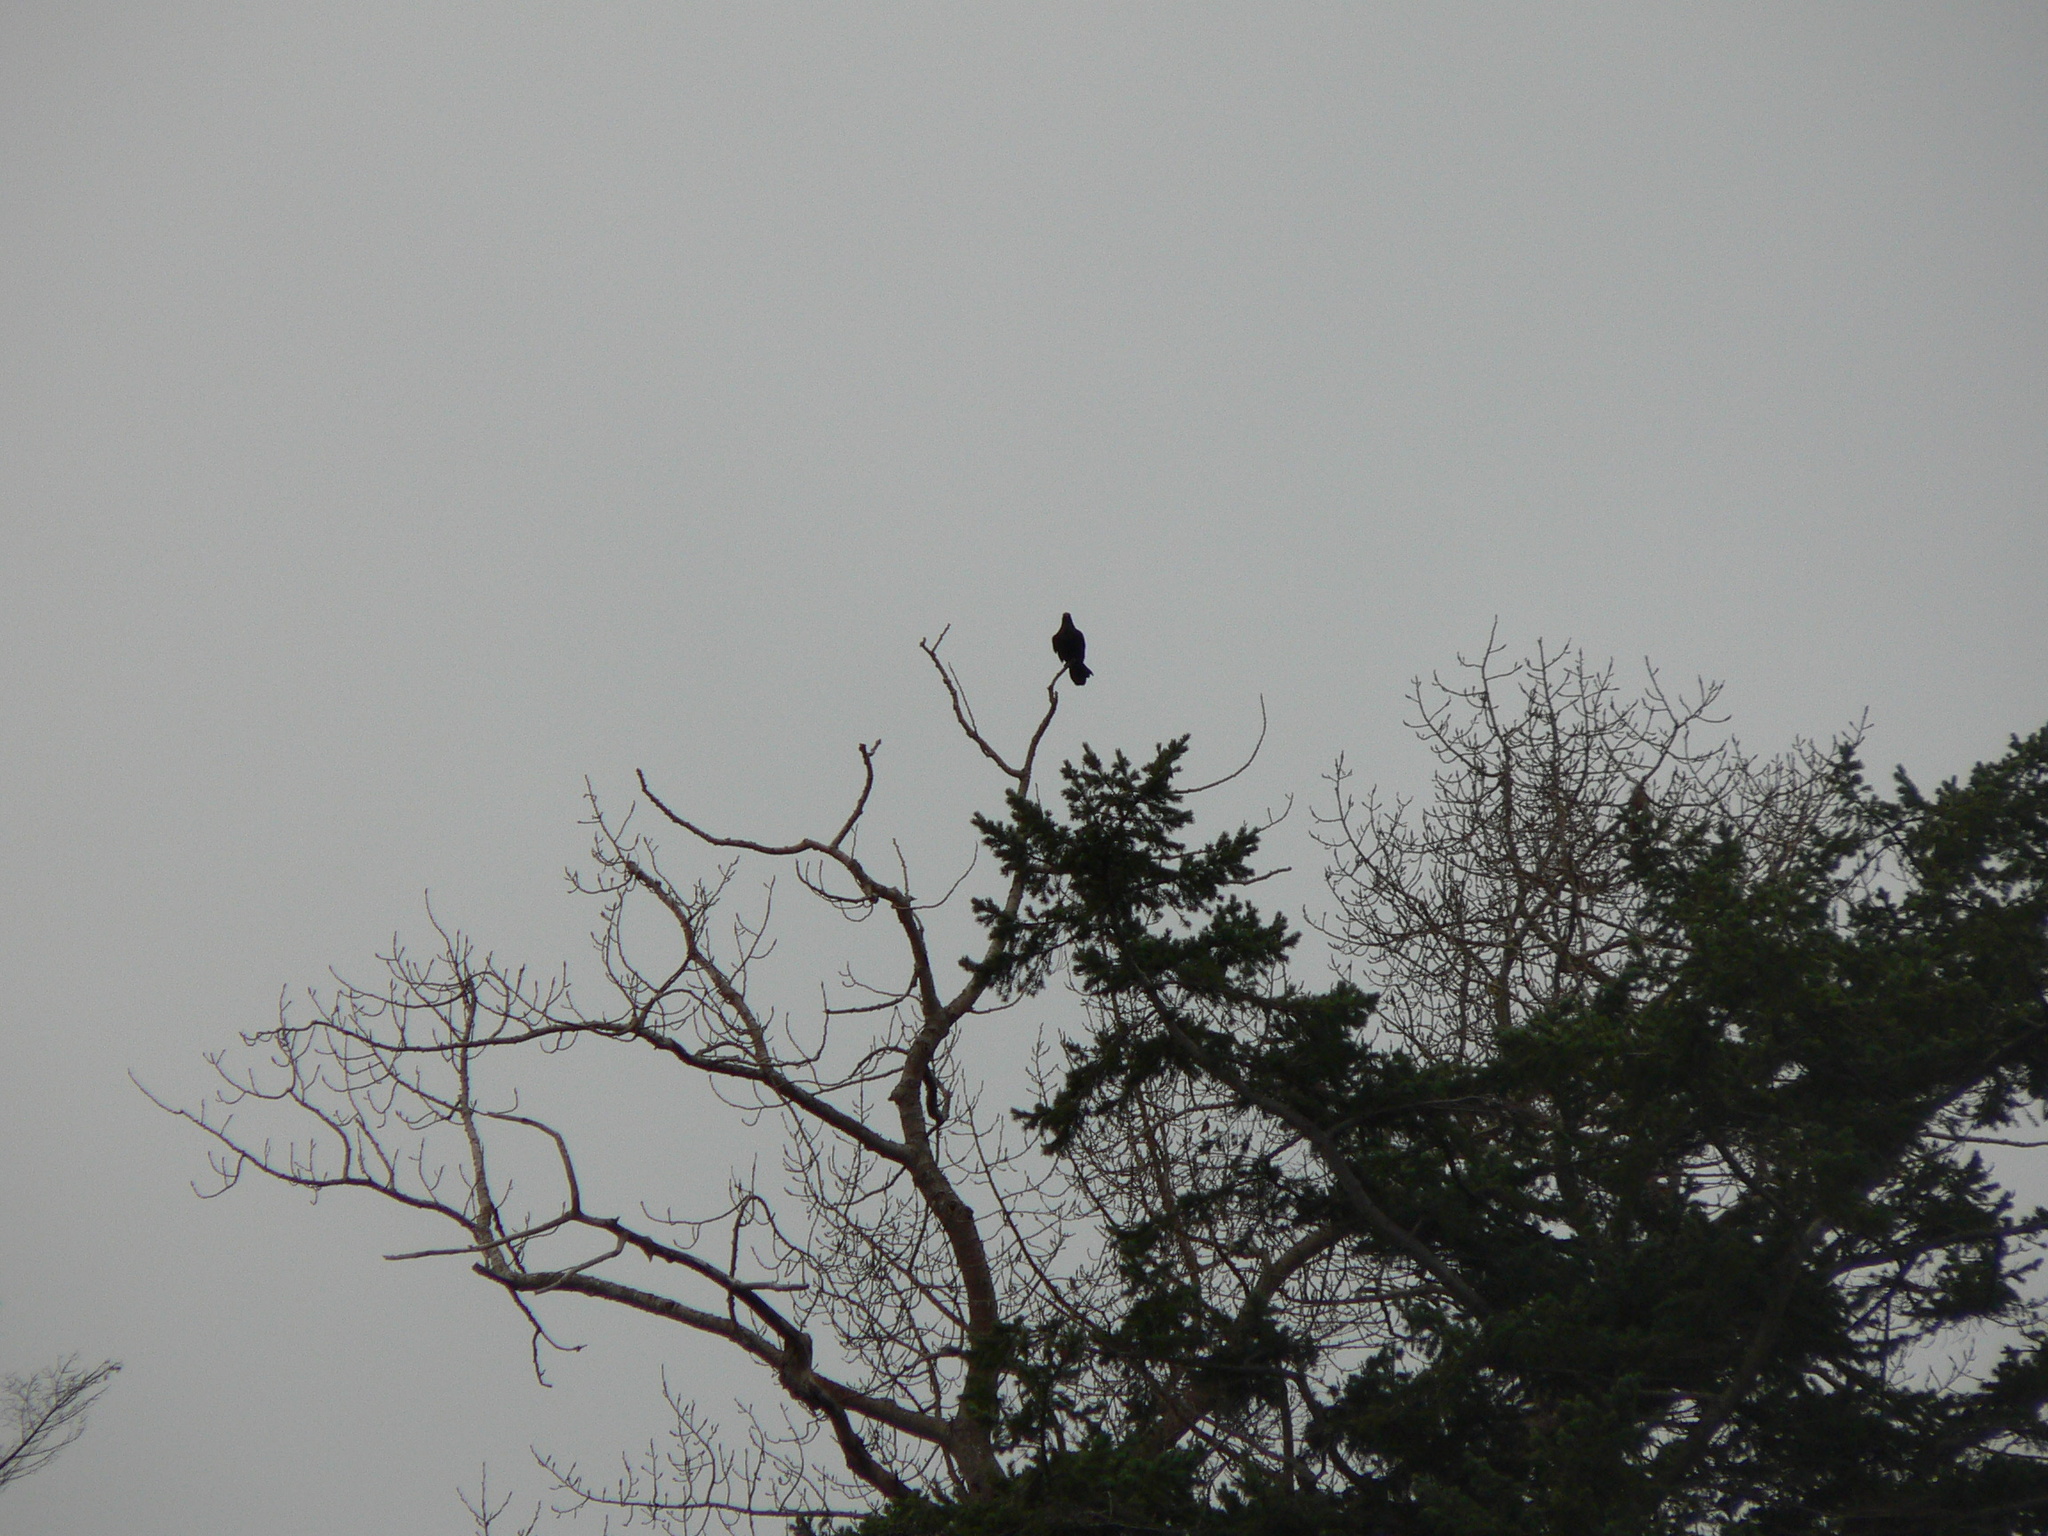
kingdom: Animalia
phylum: Chordata
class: Aves
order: Passeriformes
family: Corvidae
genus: Corvus
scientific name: Corvus corax
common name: Common raven
